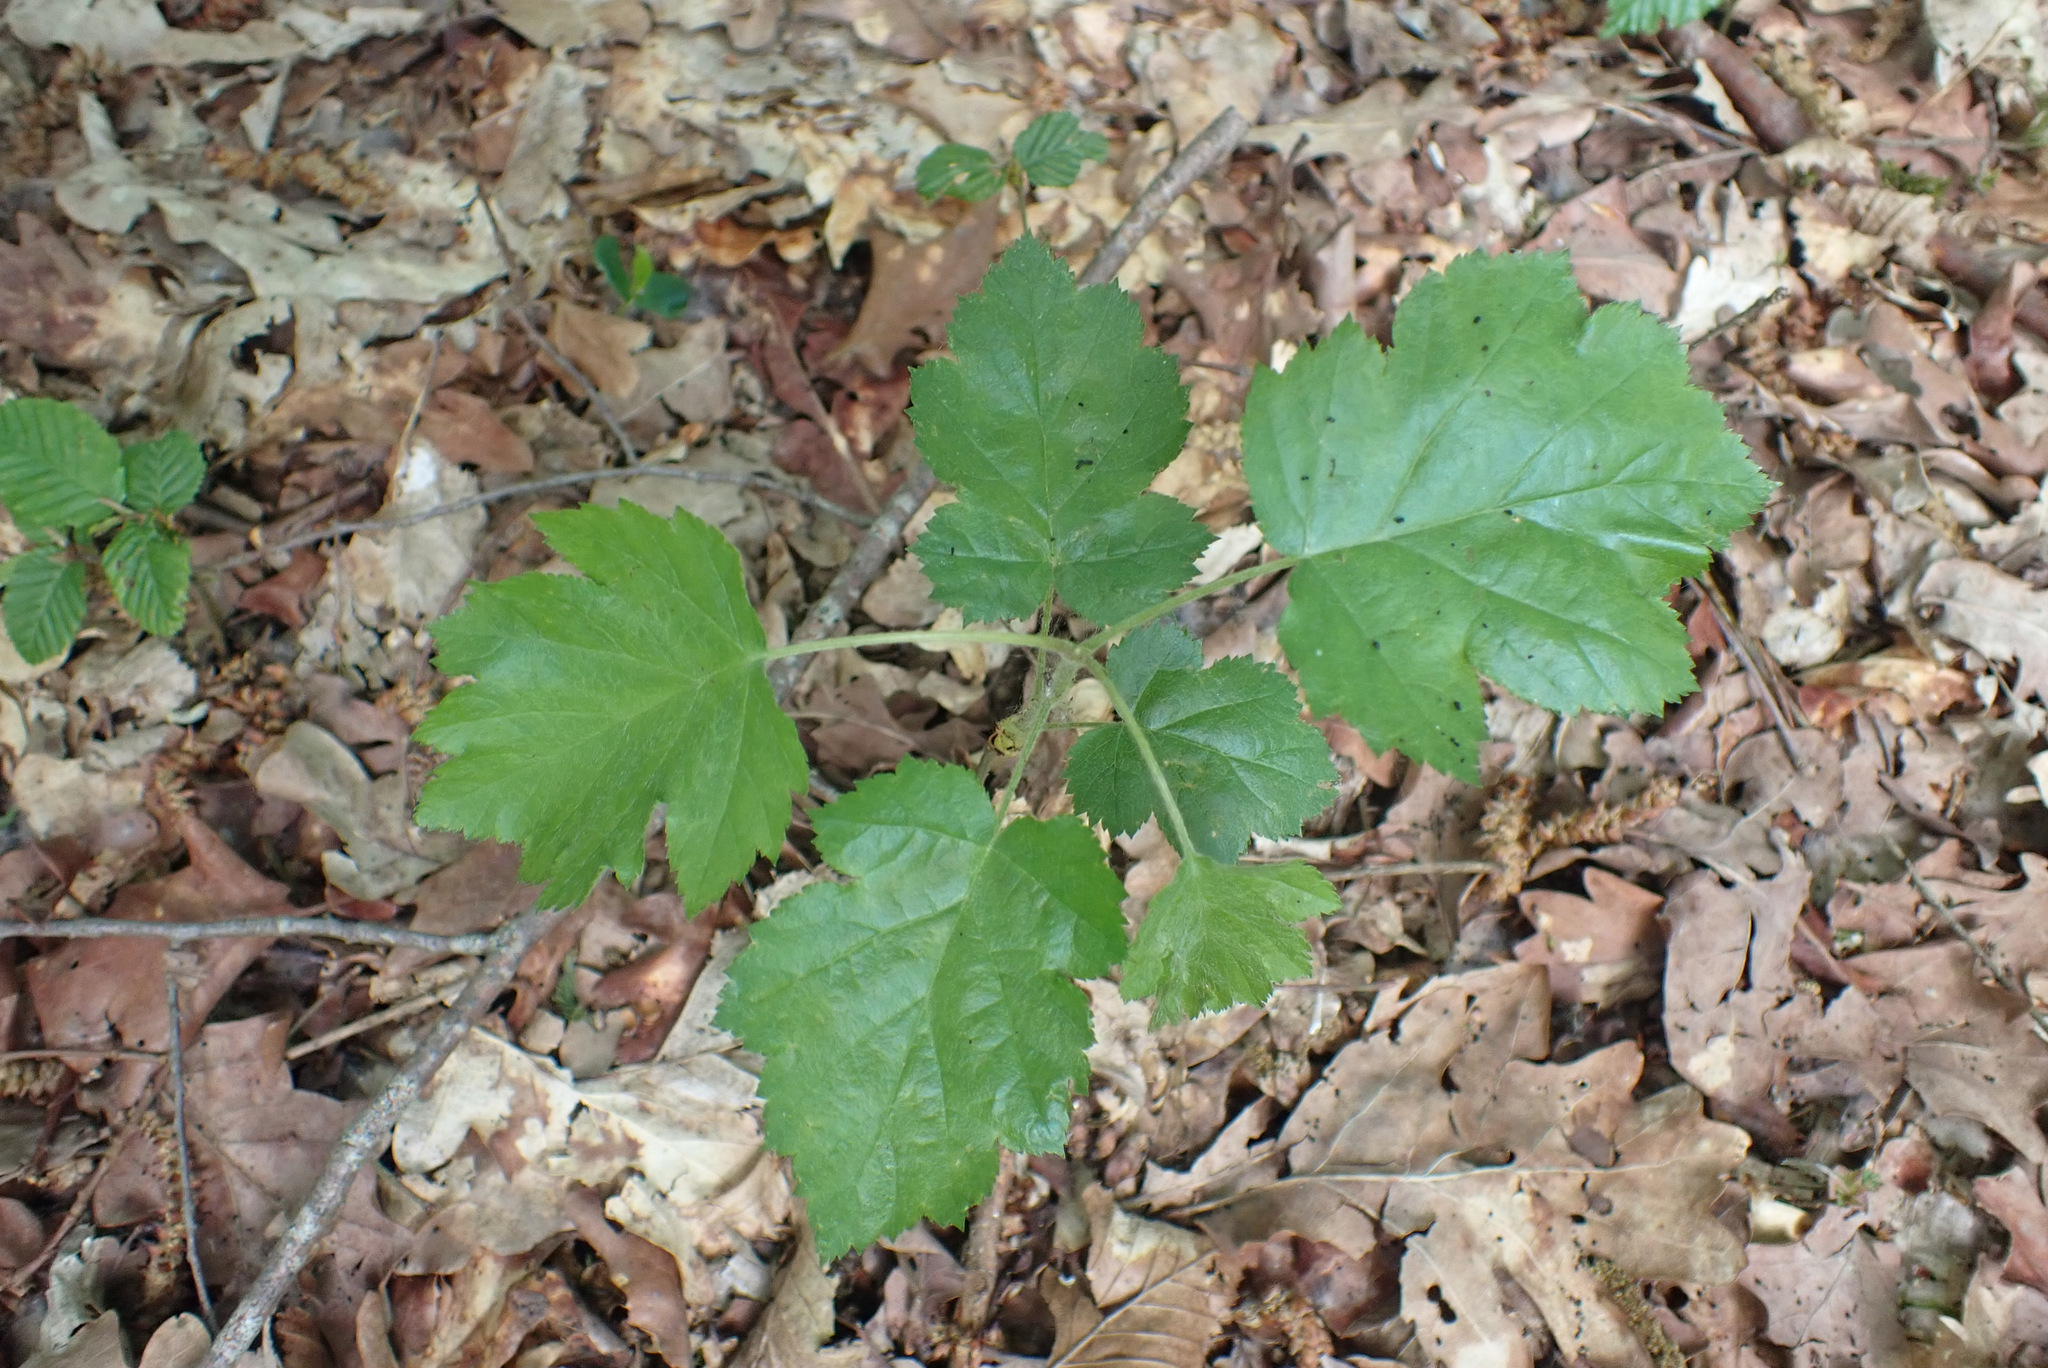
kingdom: Plantae
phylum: Tracheophyta
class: Magnoliopsida
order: Rosales
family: Rosaceae
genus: Torminalis
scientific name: Torminalis glaberrima
